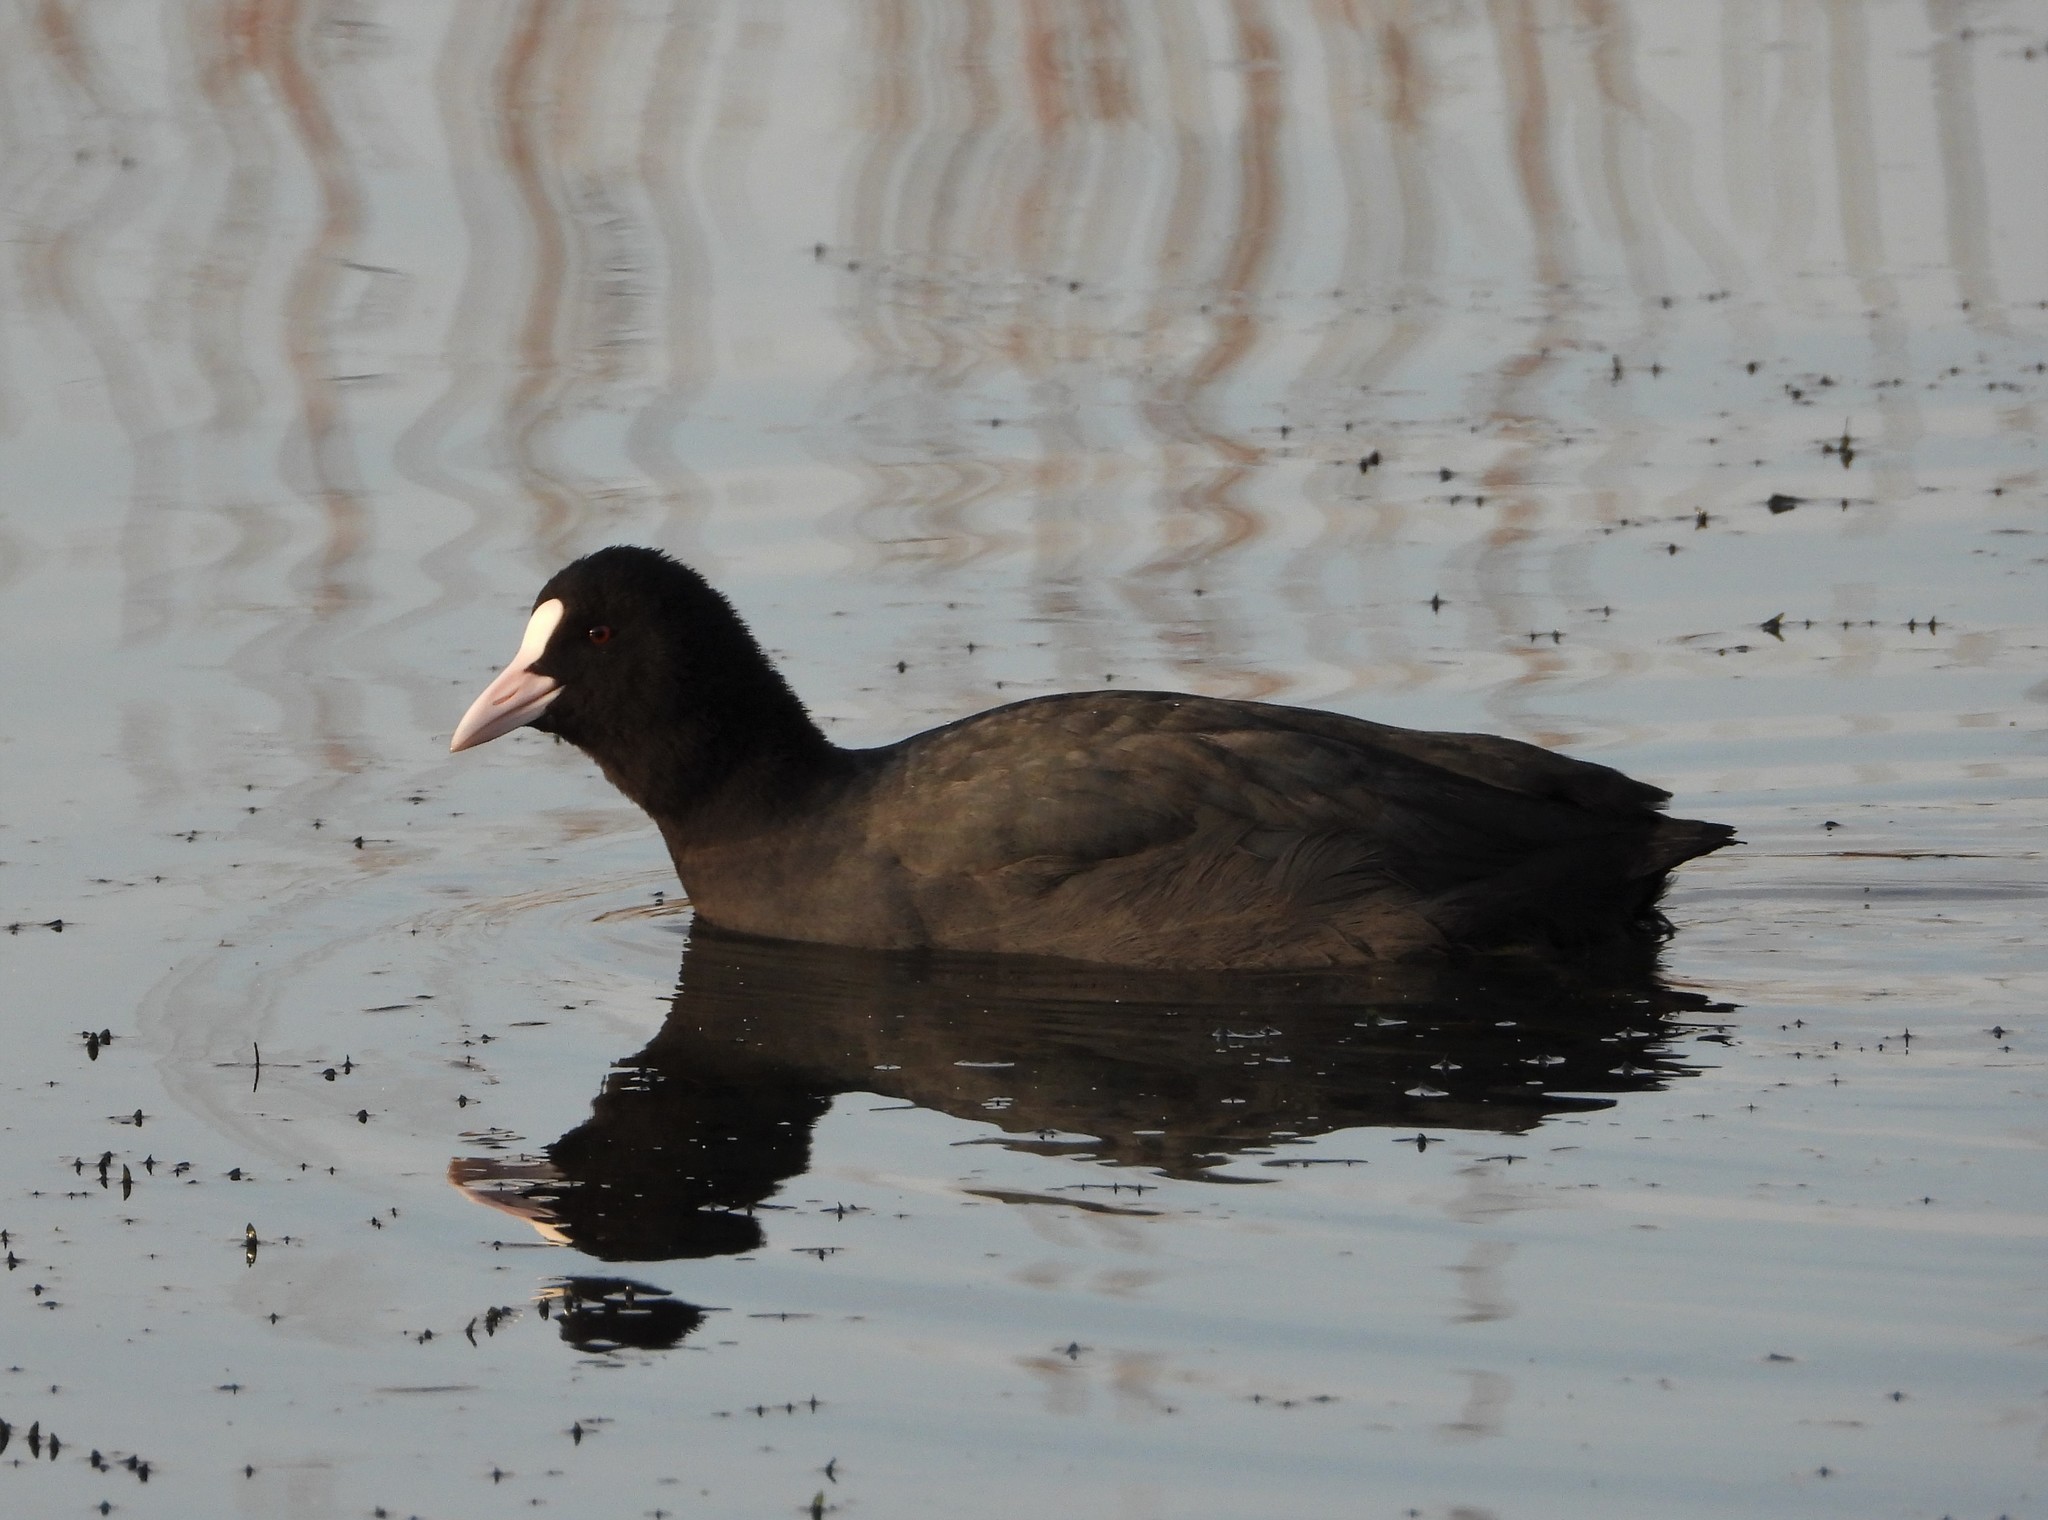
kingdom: Animalia
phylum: Chordata
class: Aves
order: Gruiformes
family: Rallidae
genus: Fulica
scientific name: Fulica atra
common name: Eurasian coot
